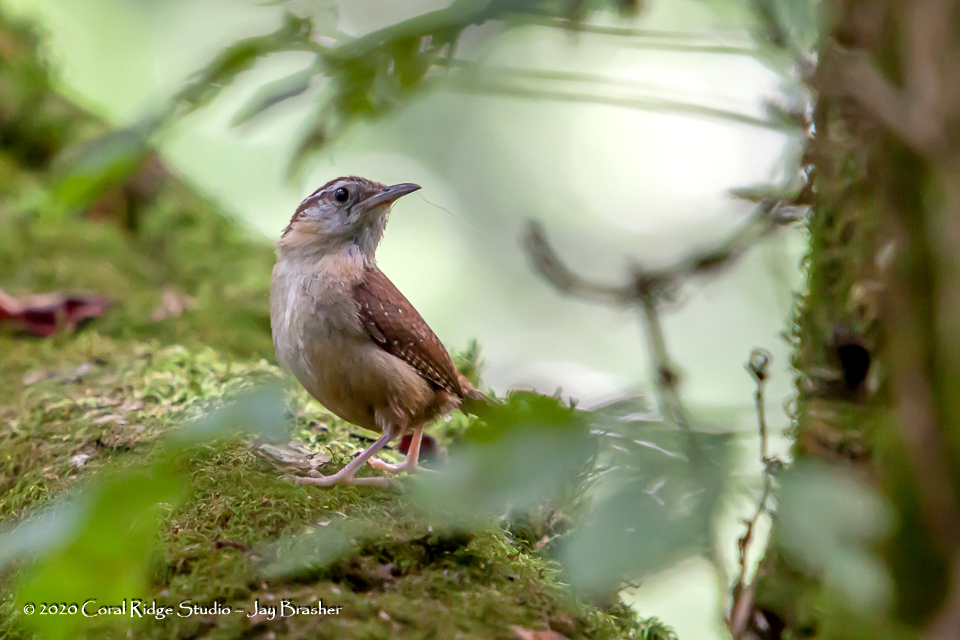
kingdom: Animalia
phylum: Chordata
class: Aves
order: Passeriformes
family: Troglodytidae
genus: Thryothorus
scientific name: Thryothorus ludovicianus
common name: Carolina wren
